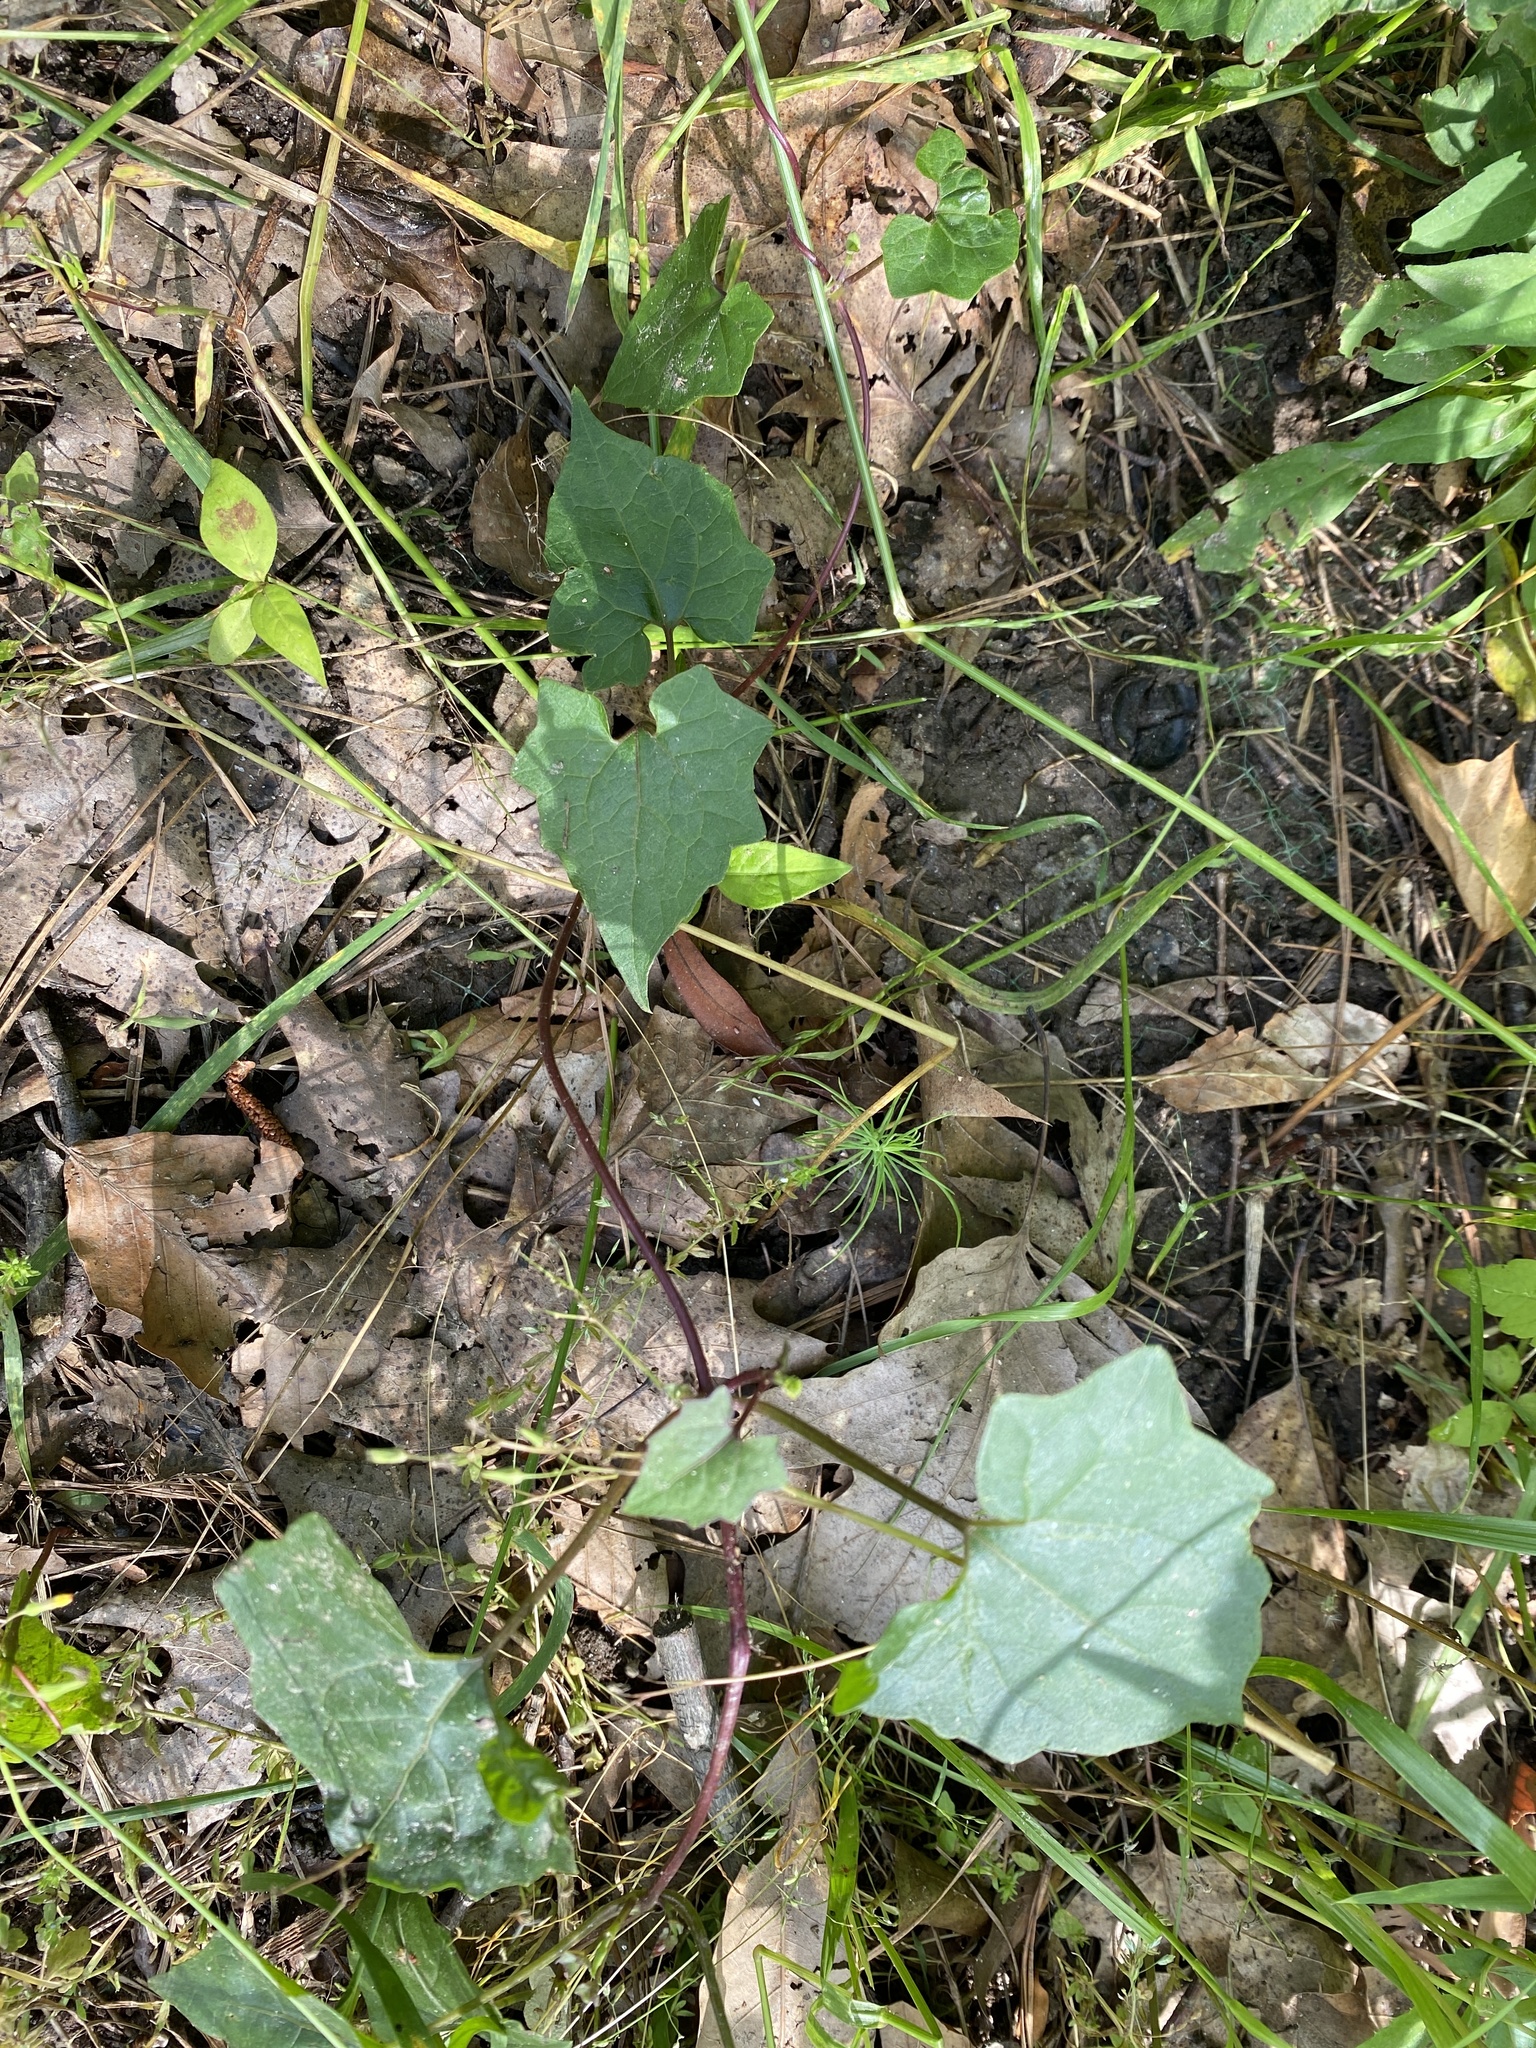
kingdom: Plantae
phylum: Tracheophyta
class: Magnoliopsida
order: Asterales
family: Asteraceae
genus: Mikania
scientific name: Mikania scandens
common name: Climbing hempvine
